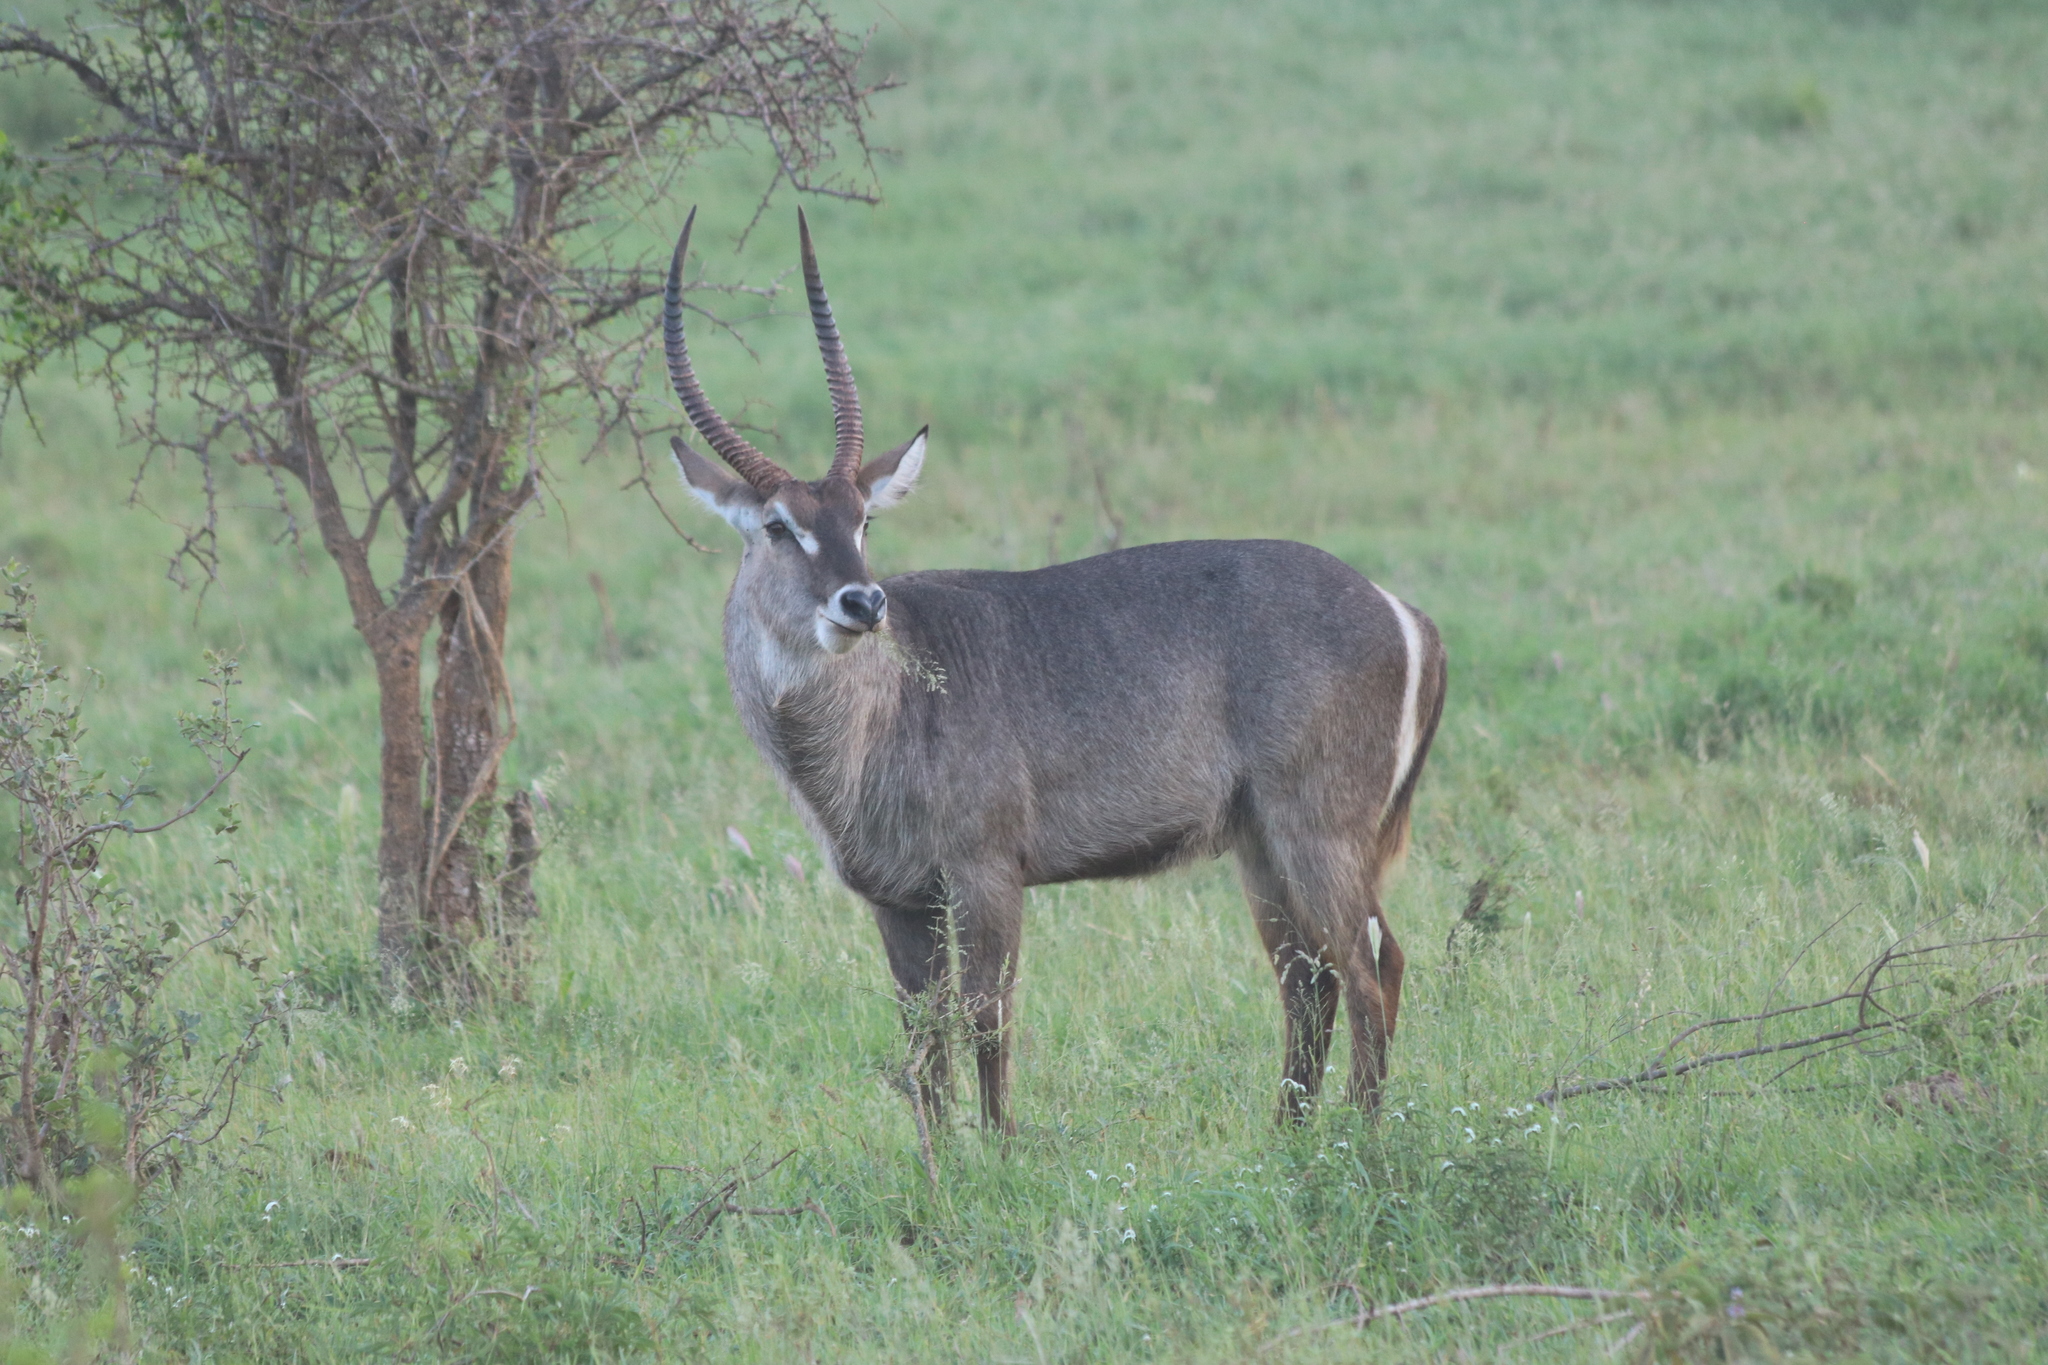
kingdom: Animalia
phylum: Chordata
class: Mammalia
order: Artiodactyla
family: Bovidae
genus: Kobus
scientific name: Kobus ellipsiprymnus
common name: Waterbuck
